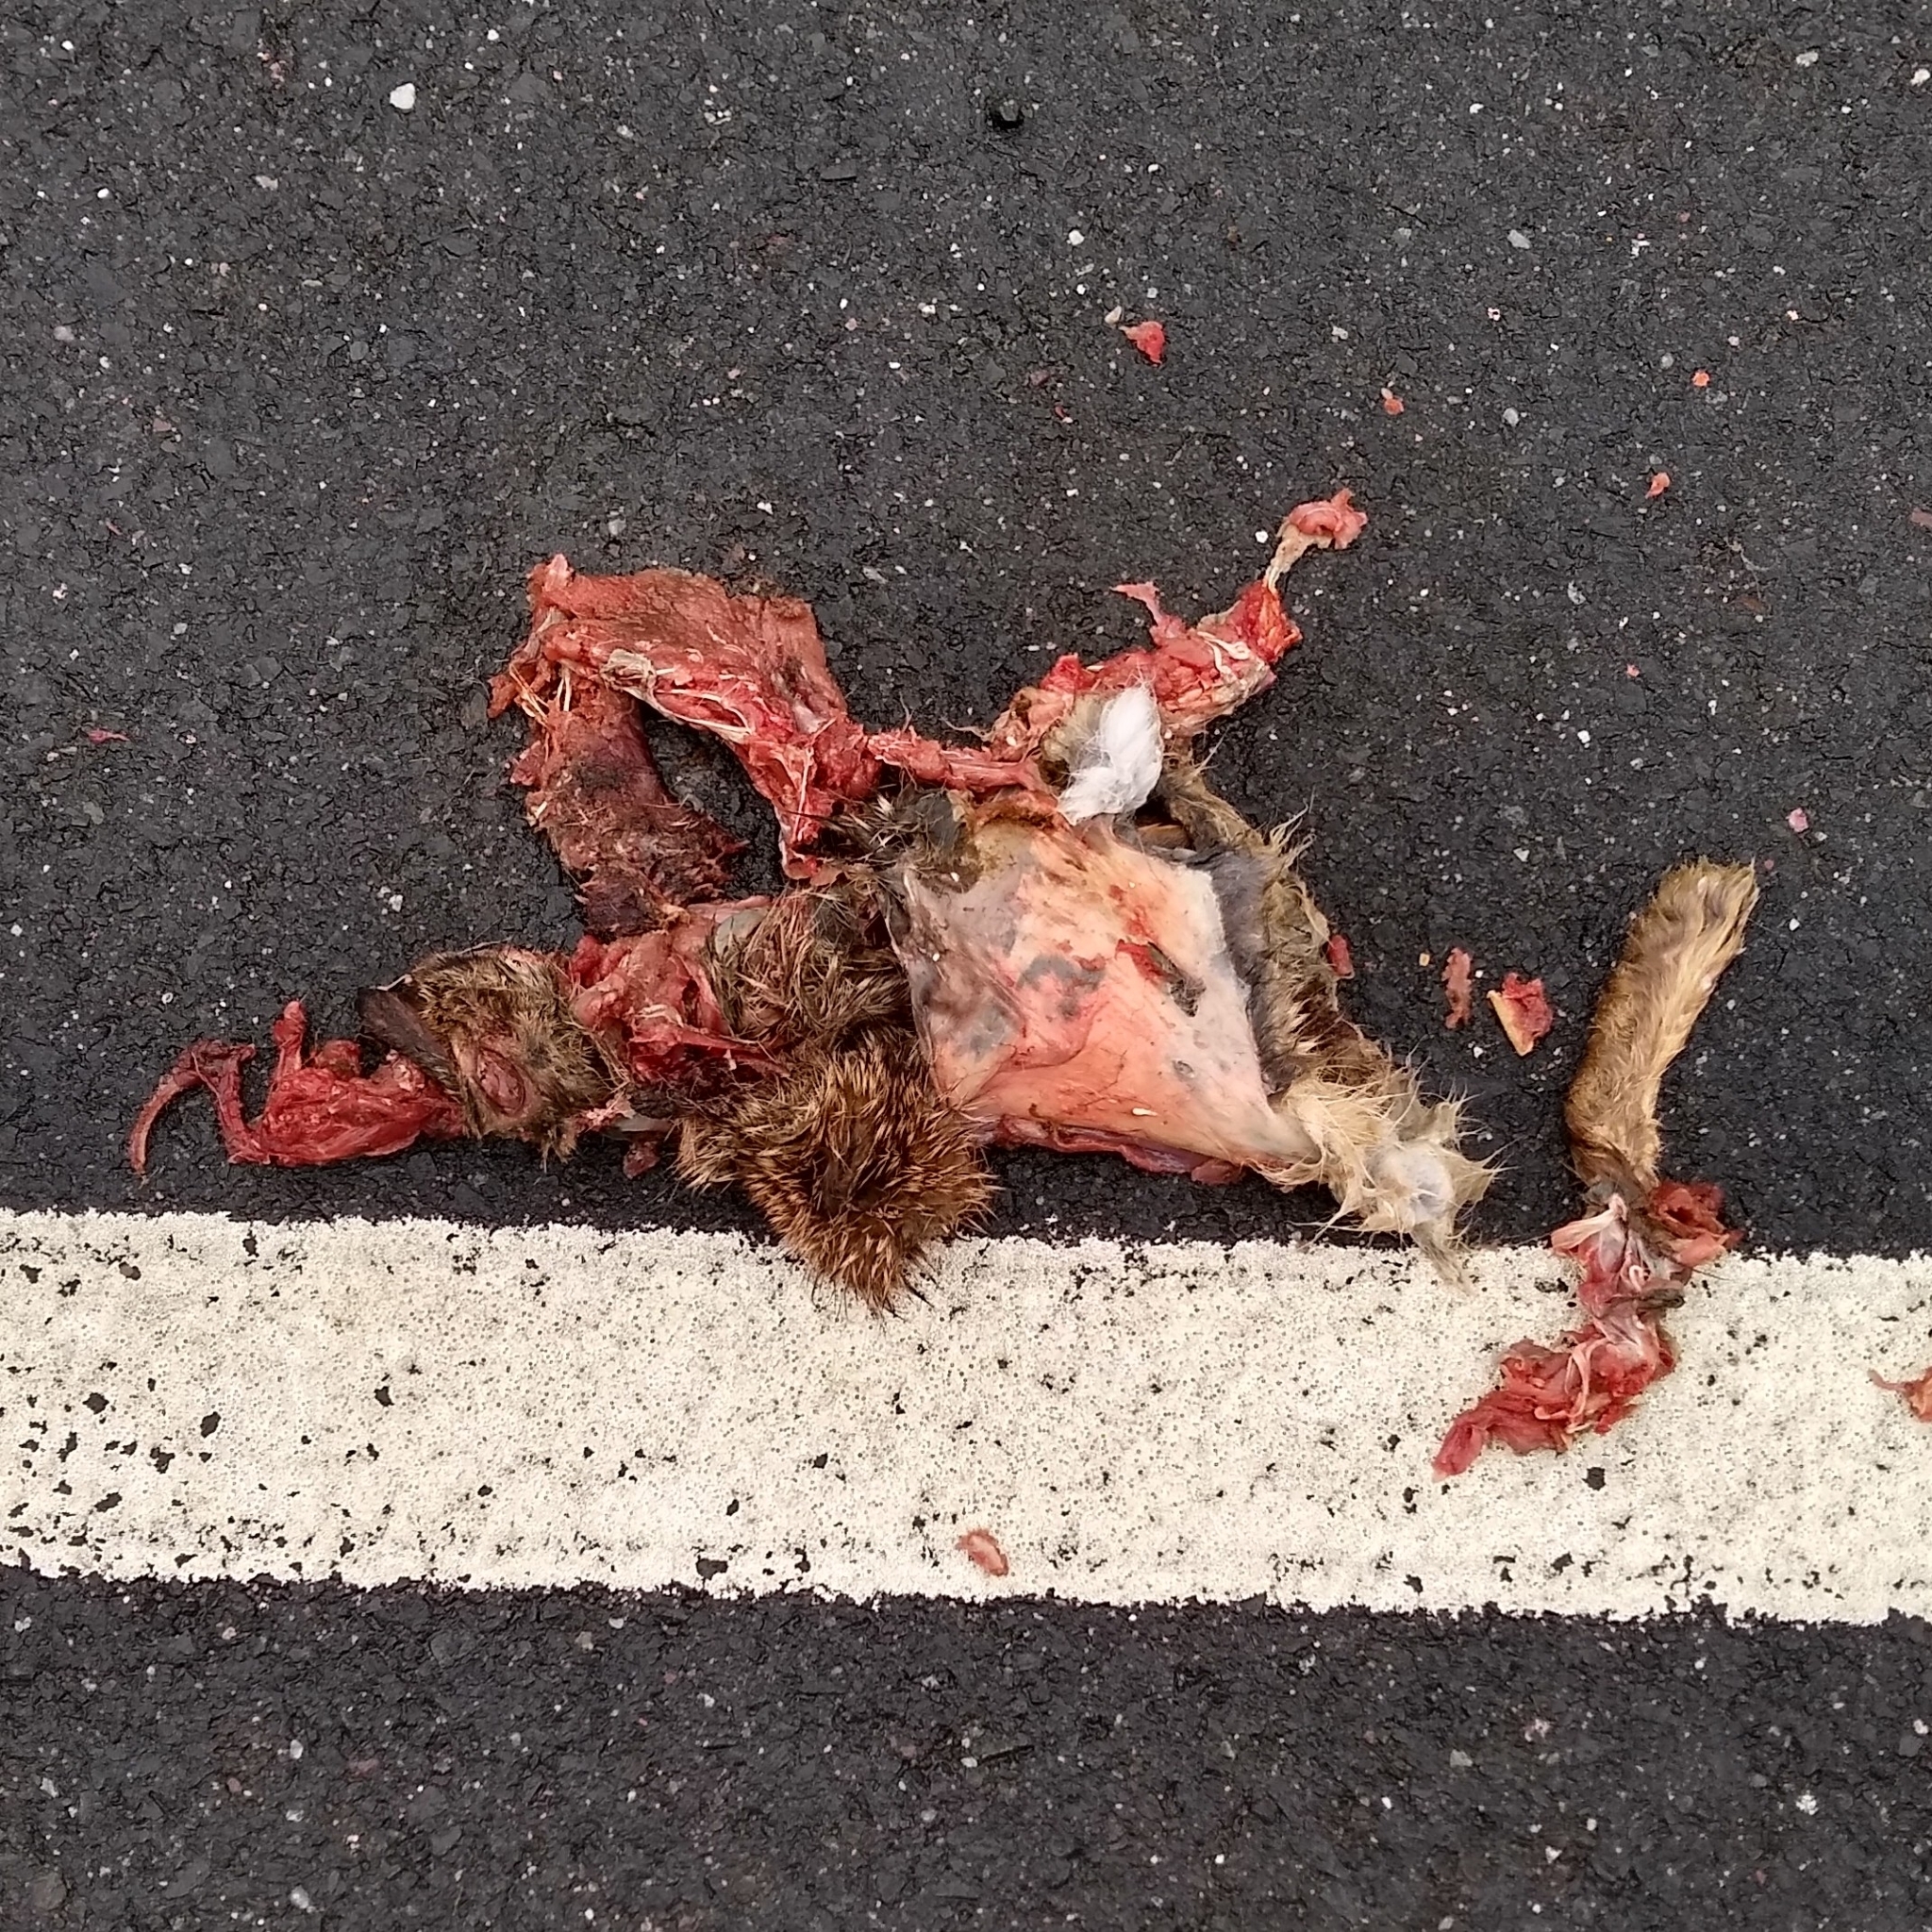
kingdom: Animalia
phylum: Chordata
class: Mammalia
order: Lagomorpha
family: Leporidae
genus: Sylvilagus
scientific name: Sylvilagus floridanus
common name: Eastern cottontail
